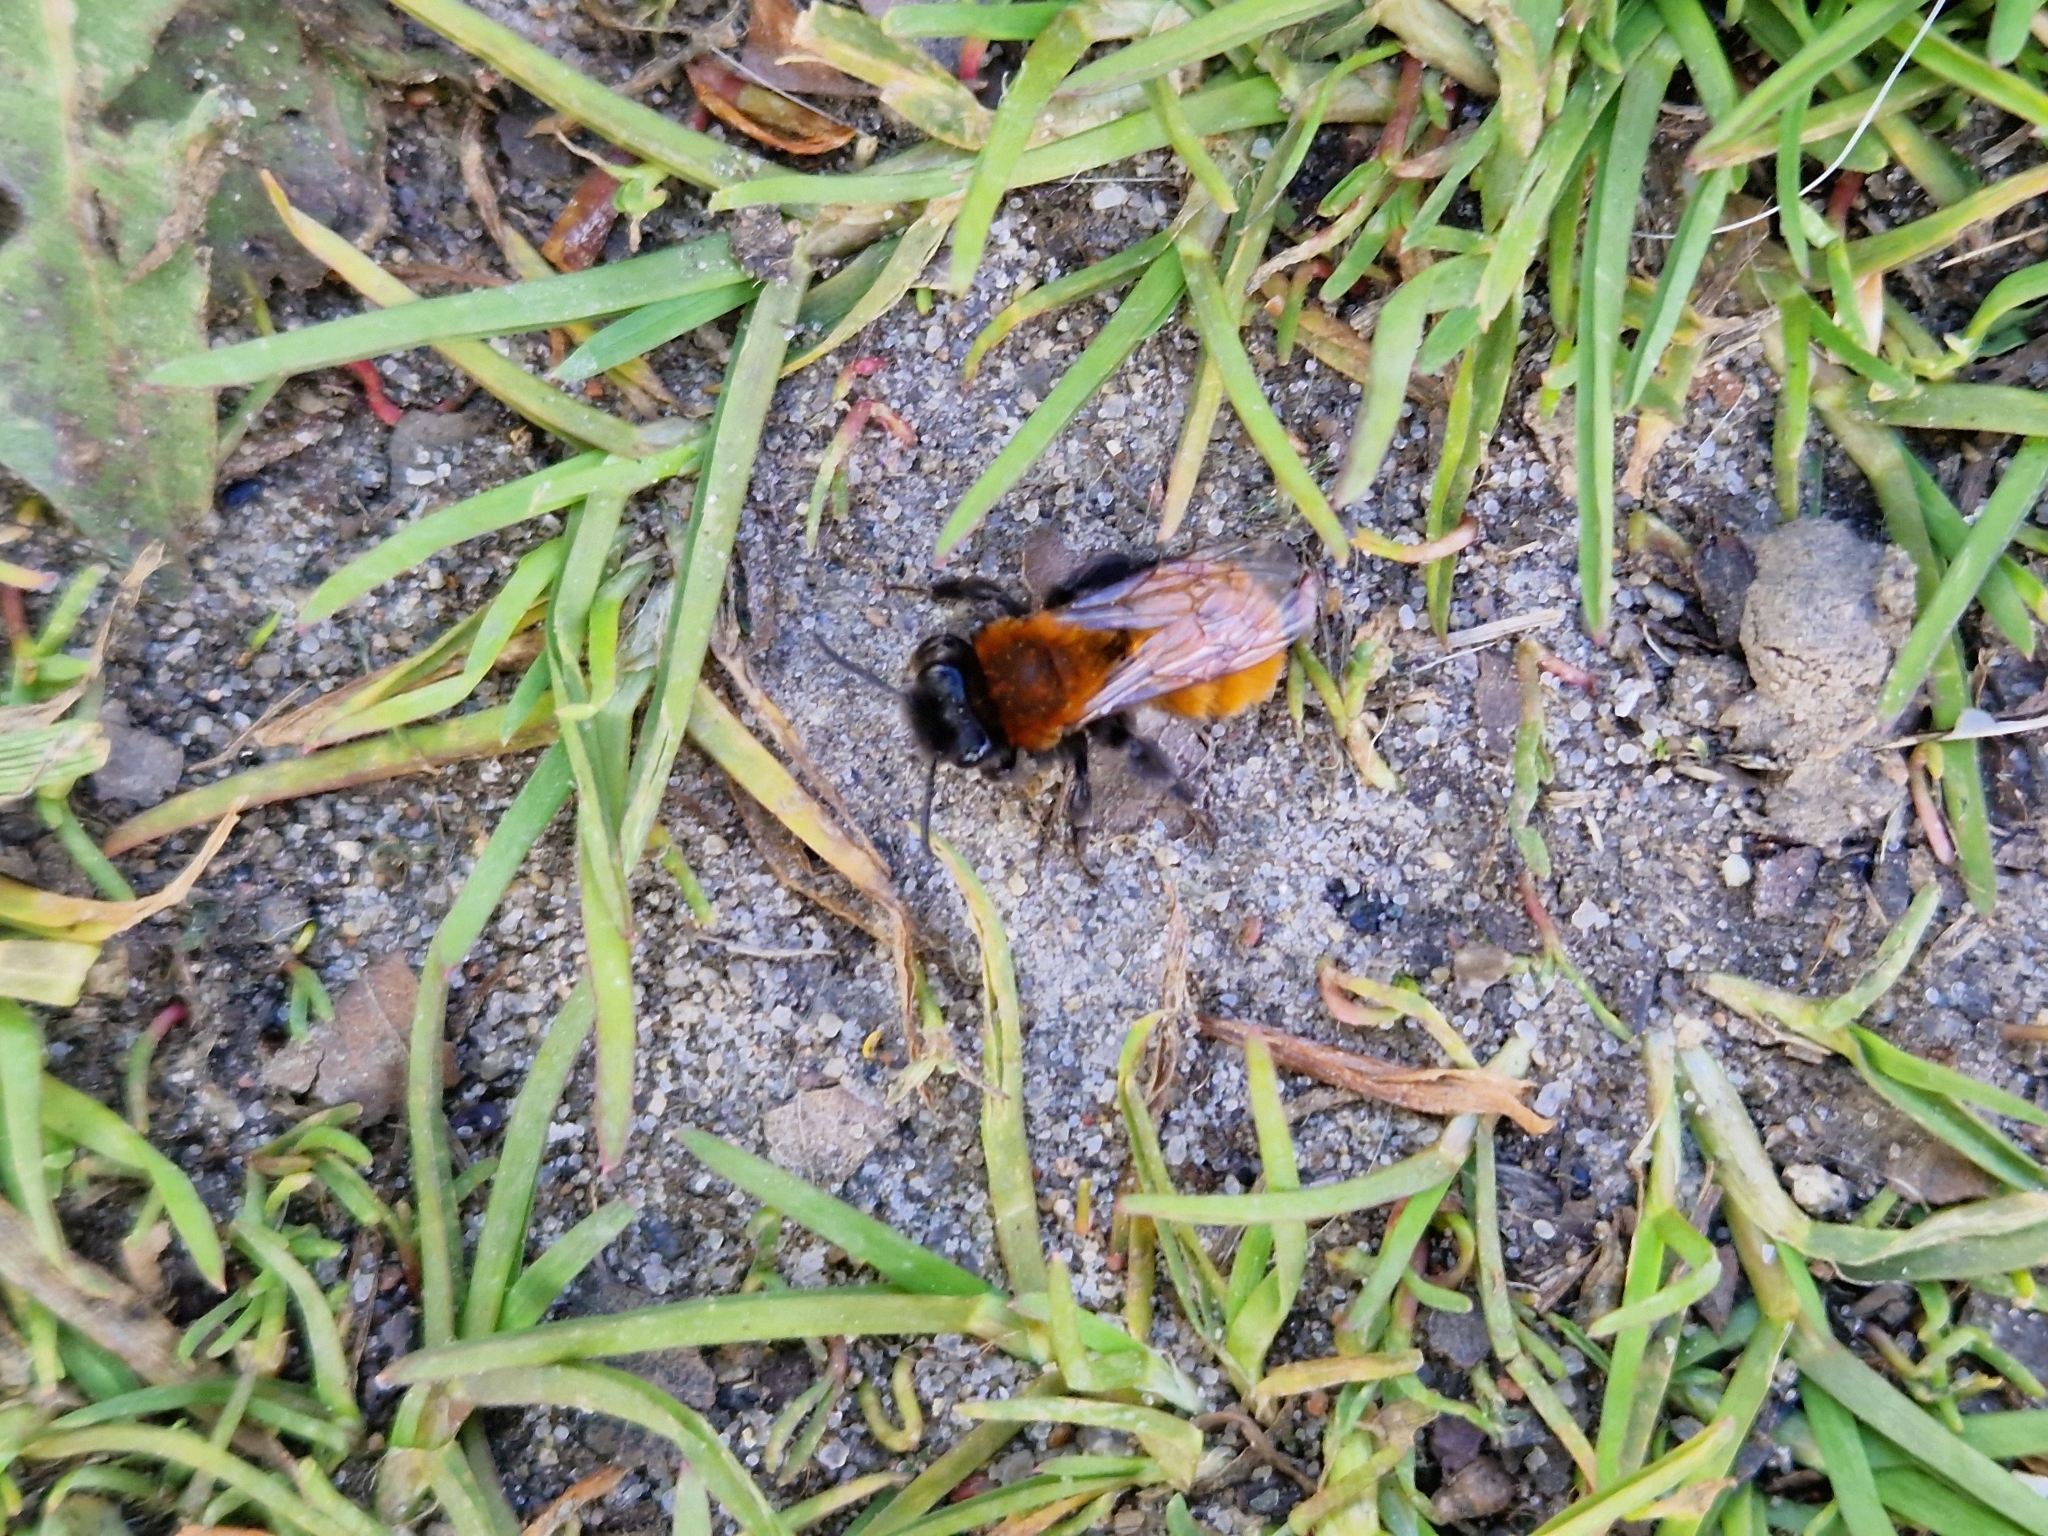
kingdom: Animalia
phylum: Arthropoda
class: Insecta
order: Hymenoptera
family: Andrenidae
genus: Andrena
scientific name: Andrena fulva
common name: Tawny mining bee
